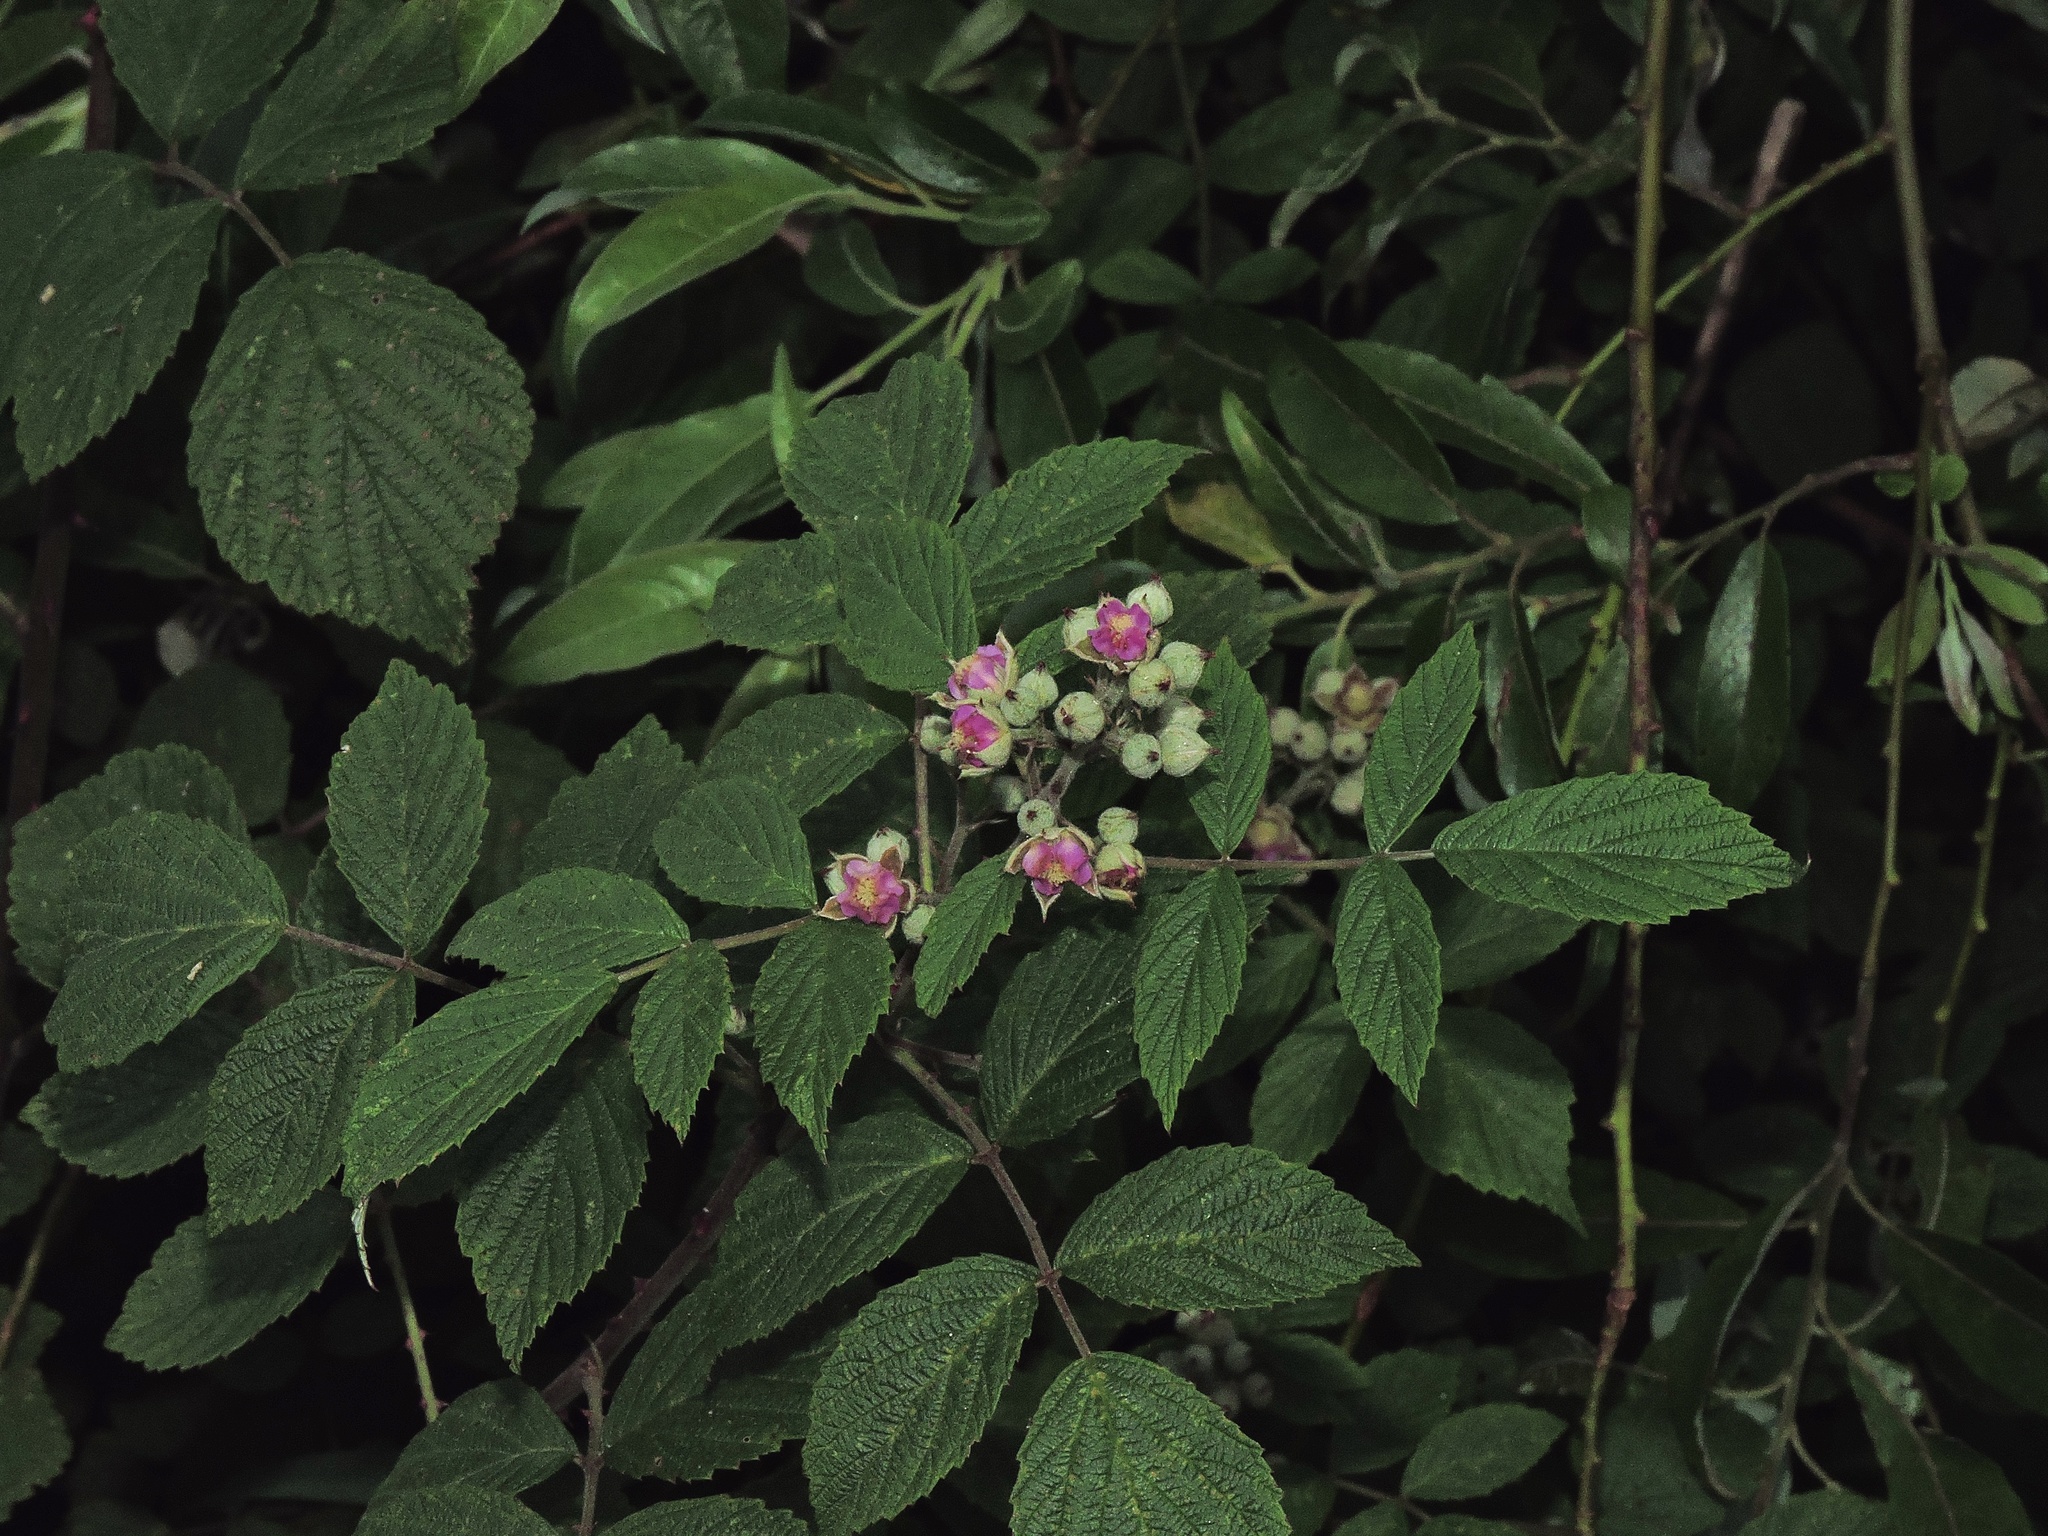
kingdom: Plantae
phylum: Tracheophyta
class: Magnoliopsida
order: Rosales
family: Rosaceae
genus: Rubus
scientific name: Rubus niveus
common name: Snowpeaks raspberry
